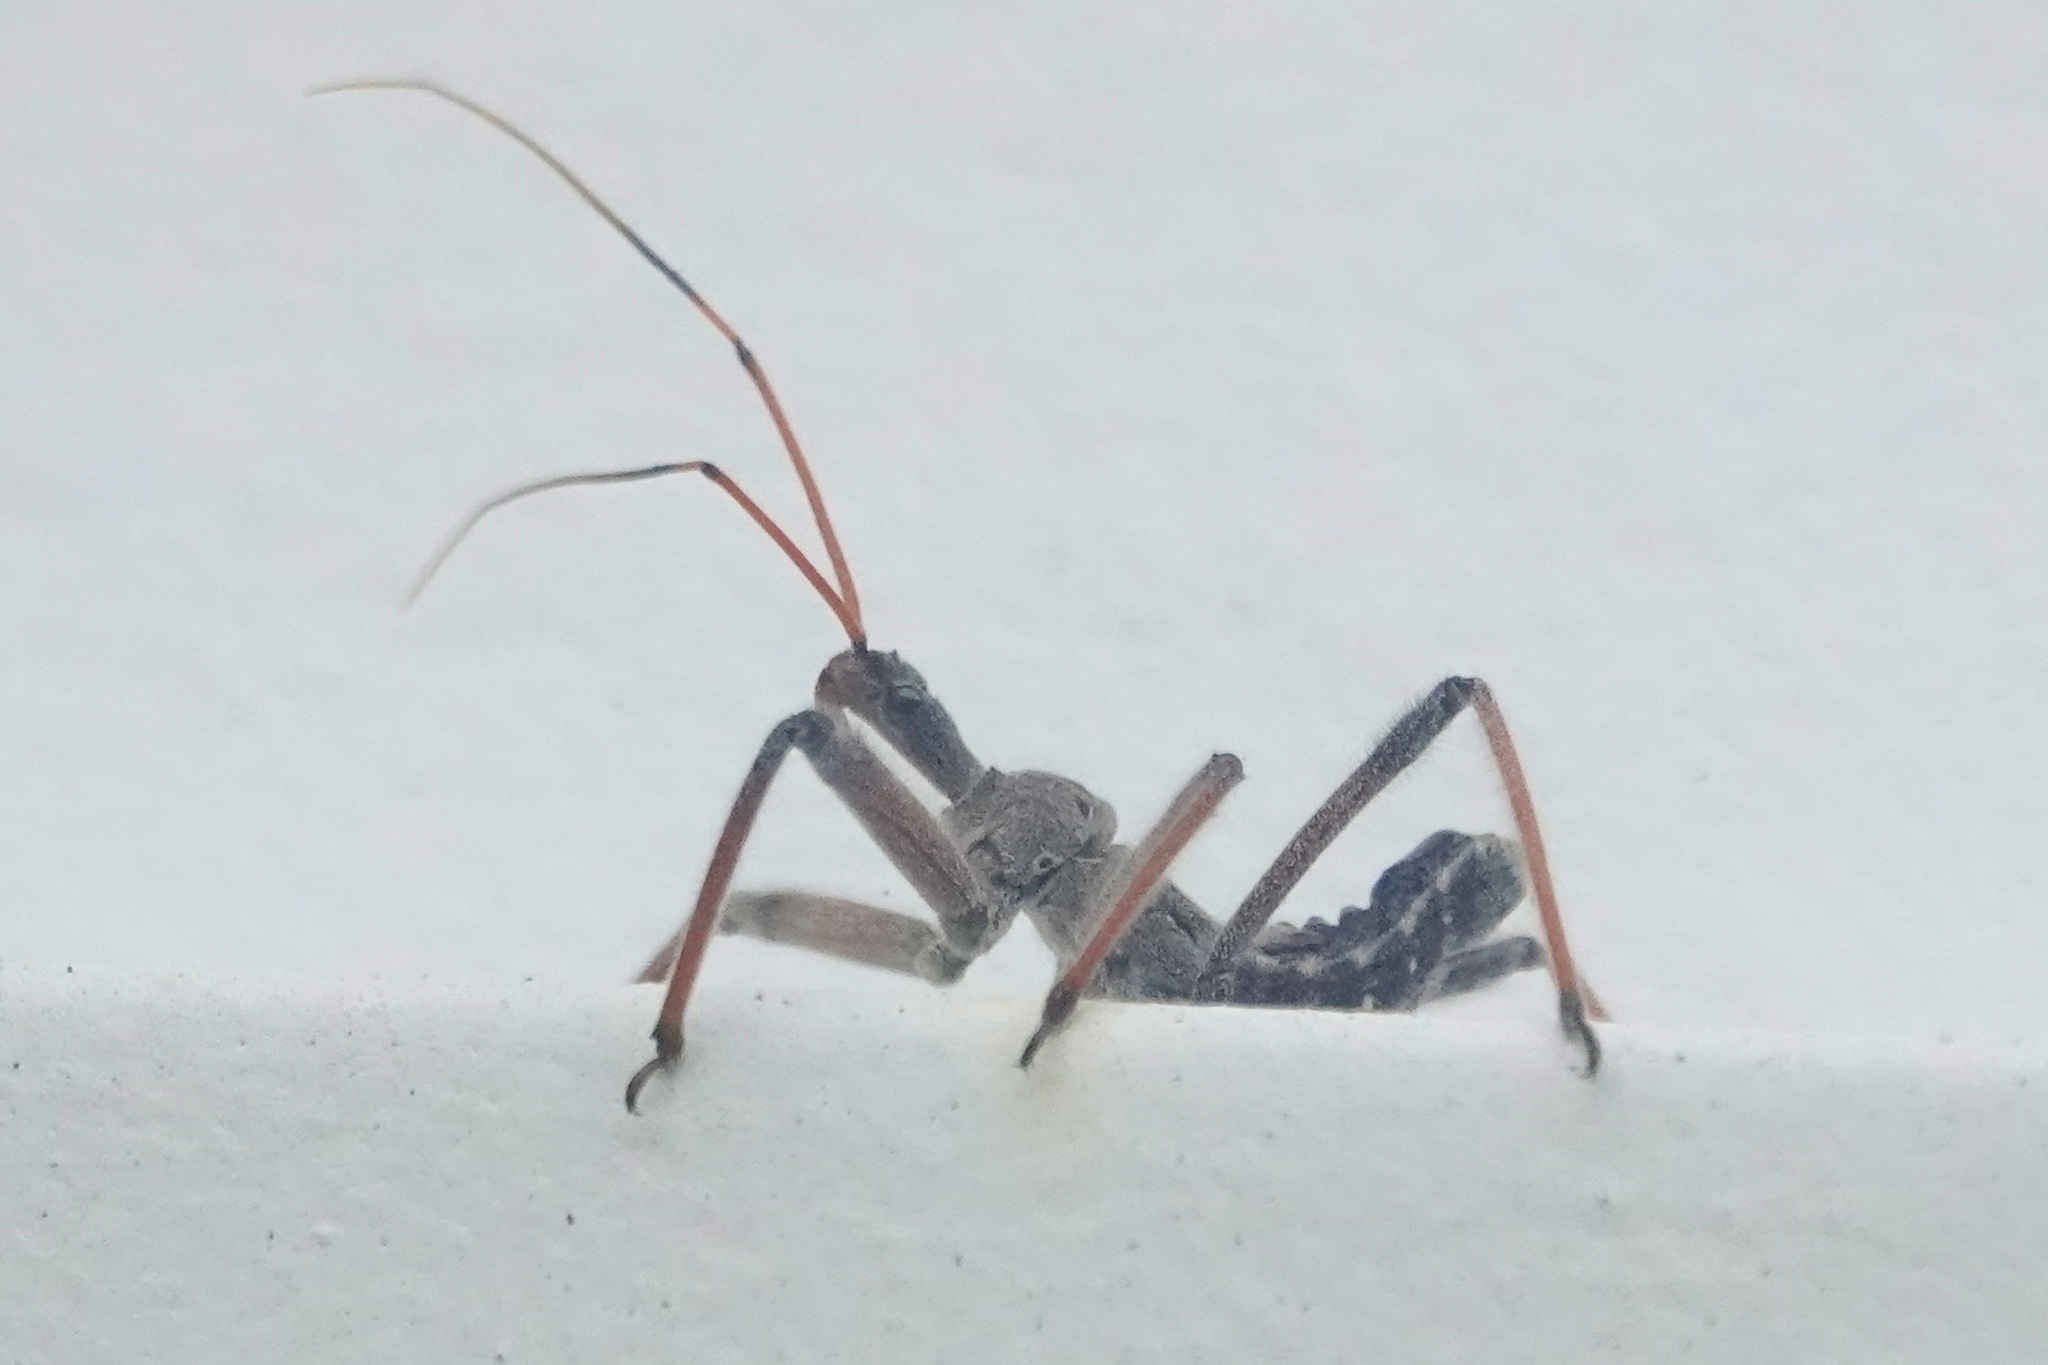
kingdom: Animalia
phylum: Arthropoda
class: Insecta
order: Hemiptera
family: Reduviidae
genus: Arilus
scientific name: Arilus cristatus
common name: North american wheel bug
